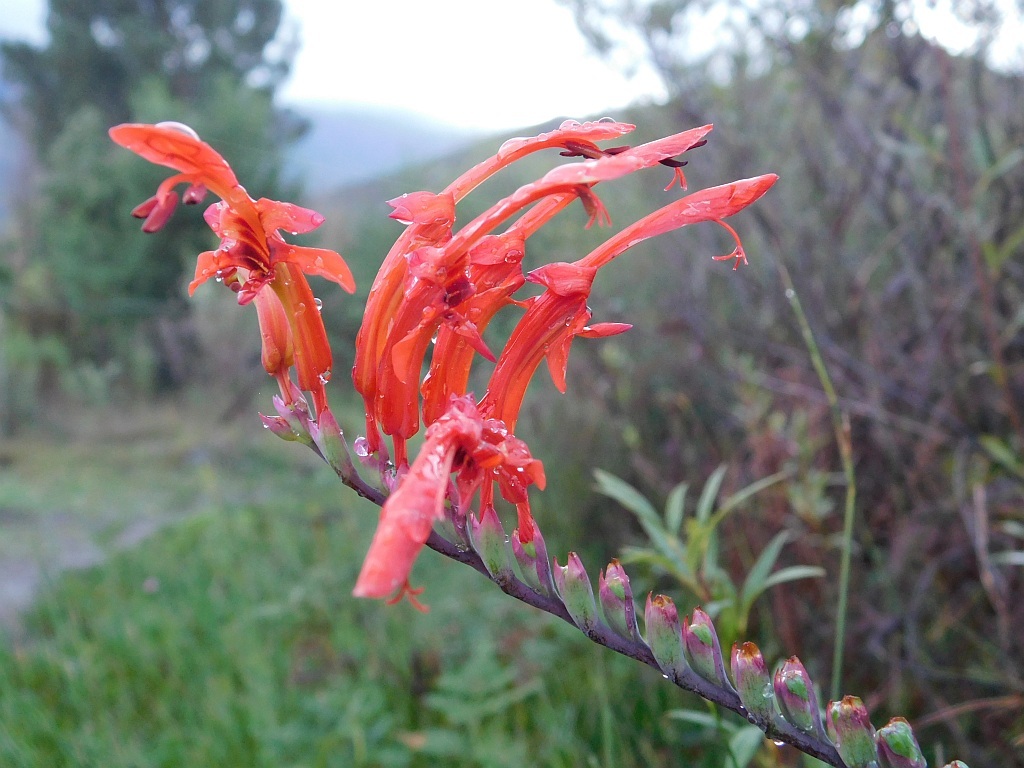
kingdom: Plantae
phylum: Tracheophyta
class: Liliopsida
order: Asparagales
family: Iridaceae
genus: Chasmanthe
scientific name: Chasmanthe aethiopica
